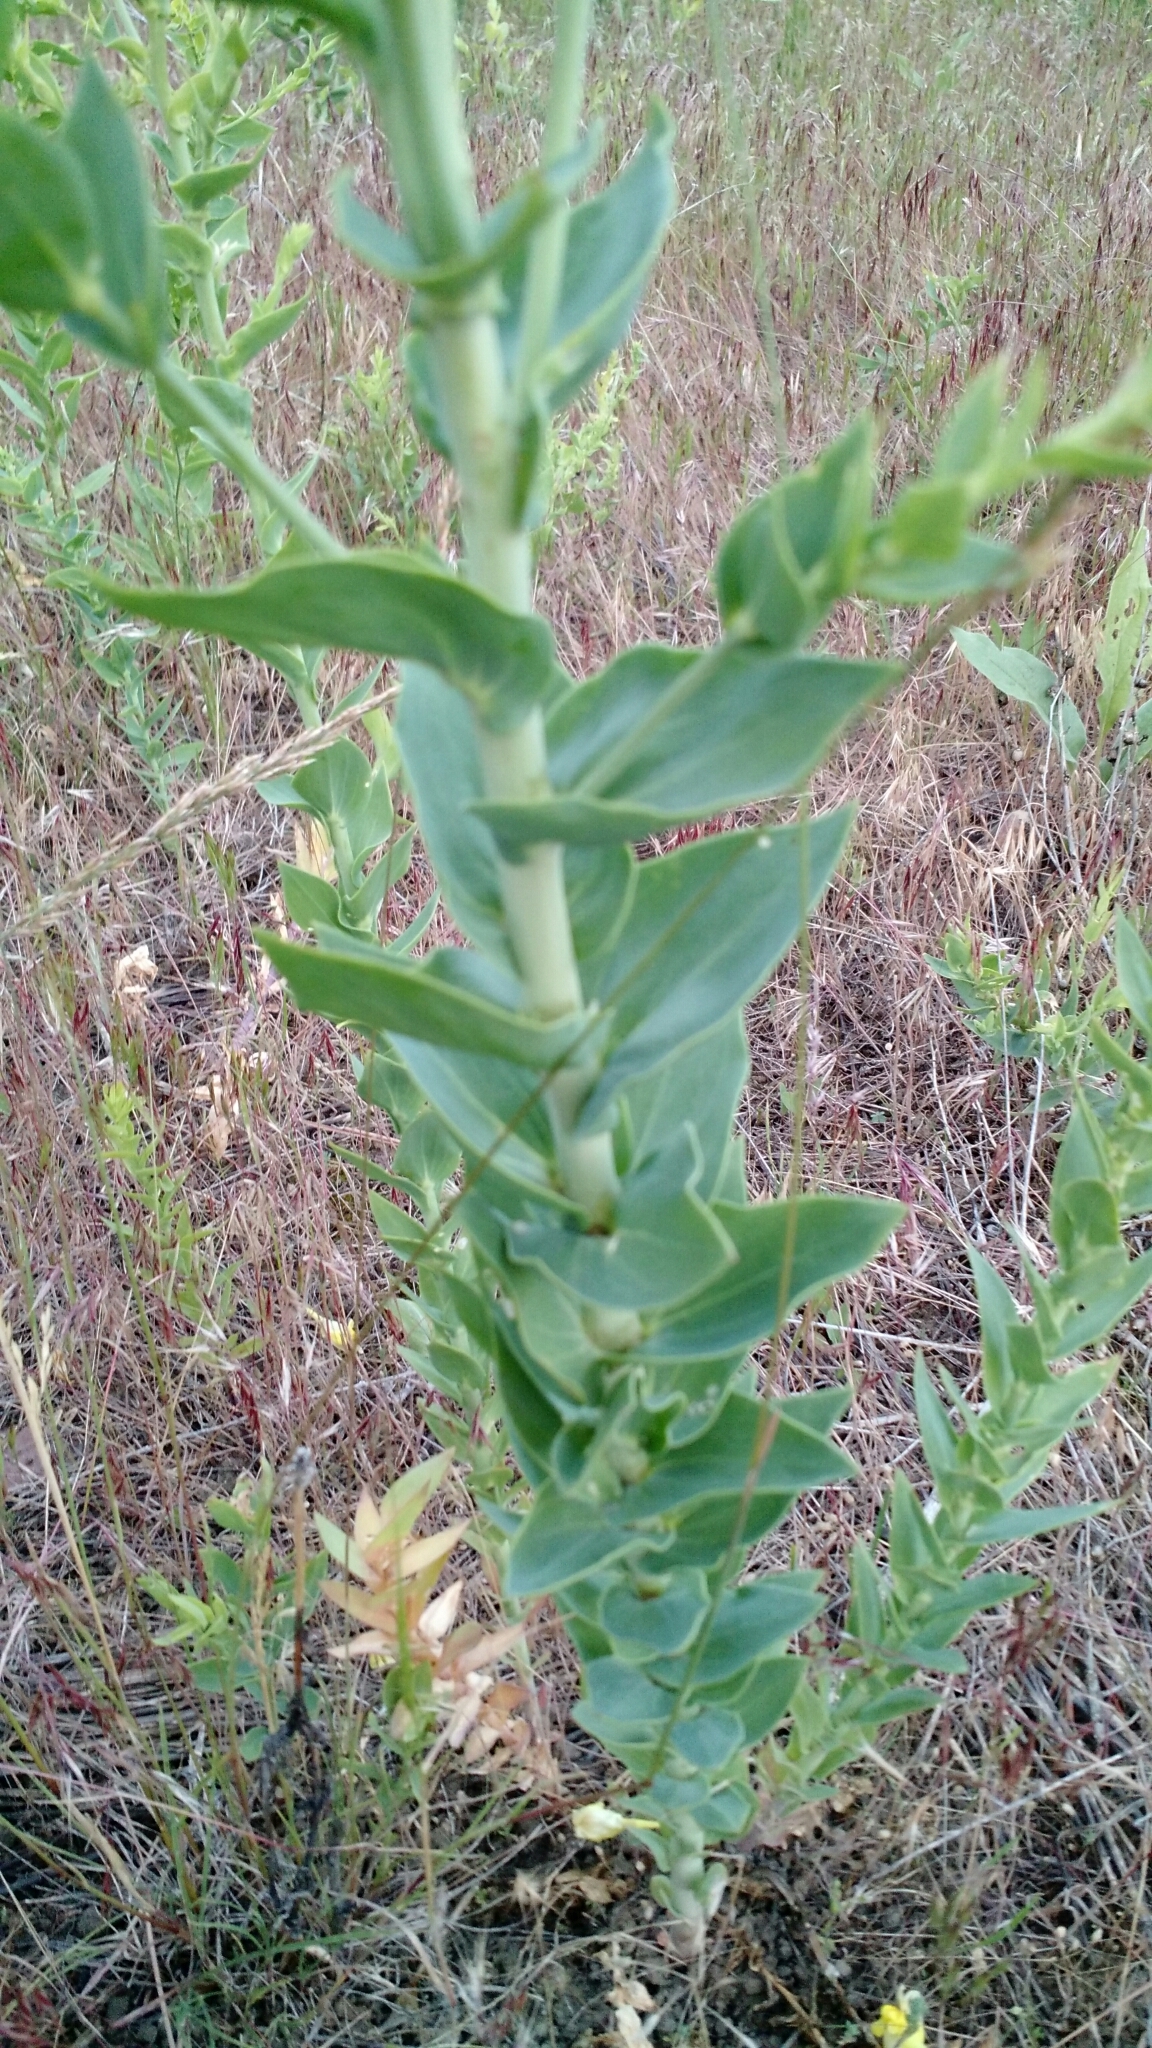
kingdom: Plantae
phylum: Tracheophyta
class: Magnoliopsida
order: Lamiales
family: Plantaginaceae
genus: Linaria
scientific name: Linaria dalmatica
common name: Dalmatian toadflax
